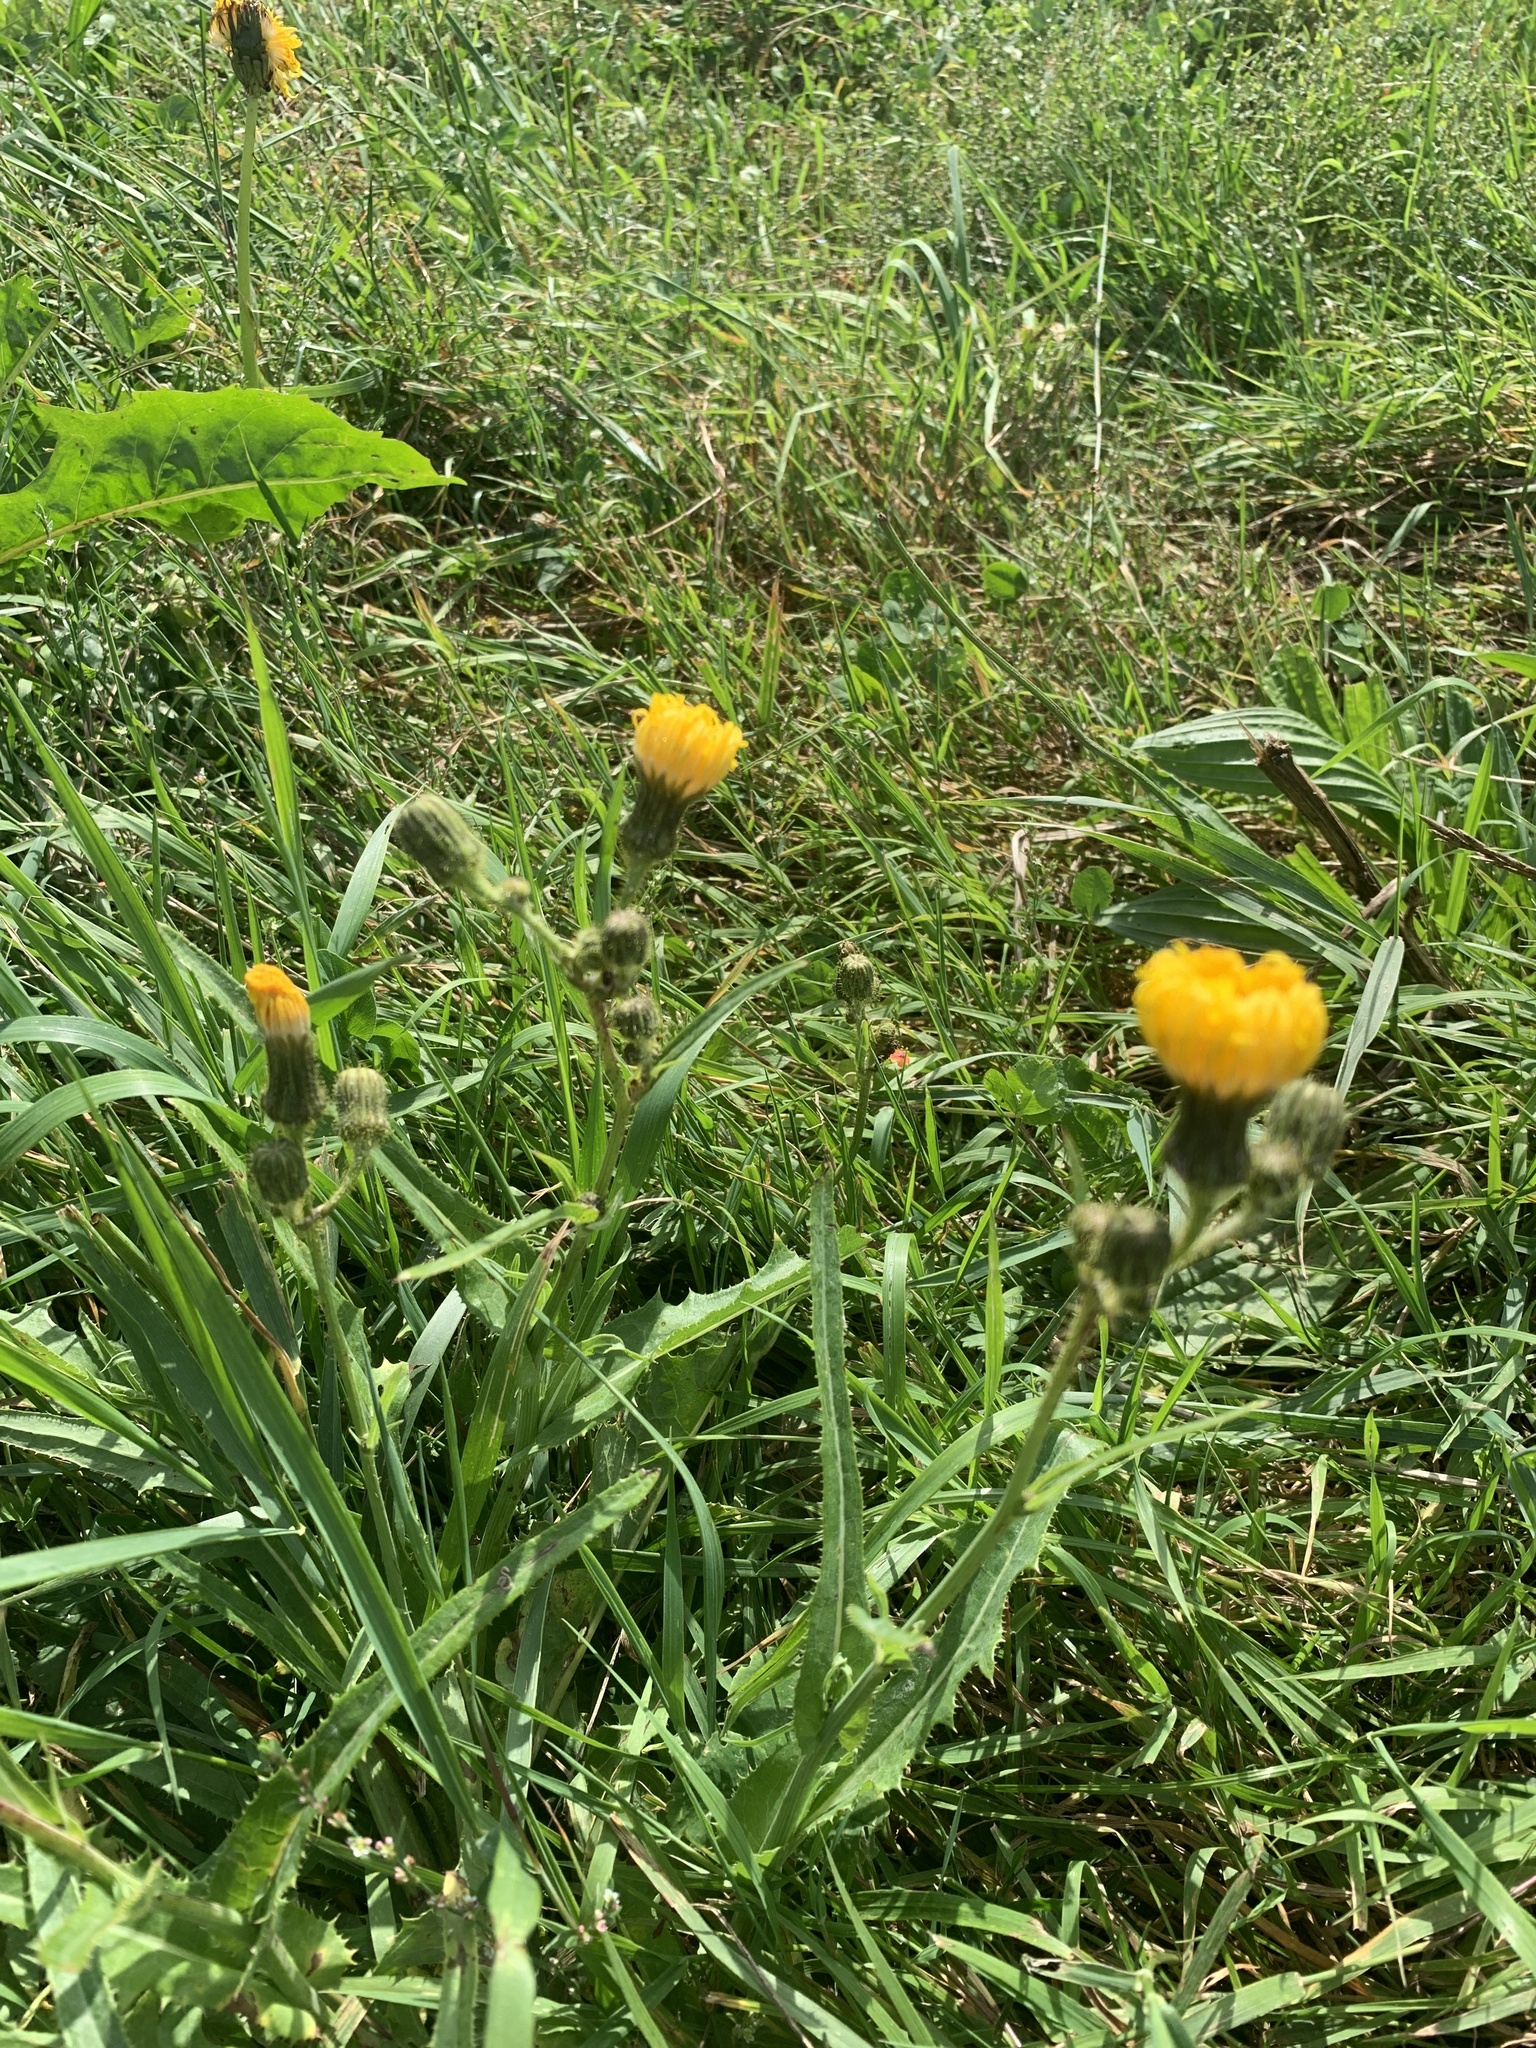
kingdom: Plantae
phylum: Tracheophyta
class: Magnoliopsida
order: Asterales
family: Asteraceae
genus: Sonchus
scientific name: Sonchus arvensis
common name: Perennial sow-thistle
